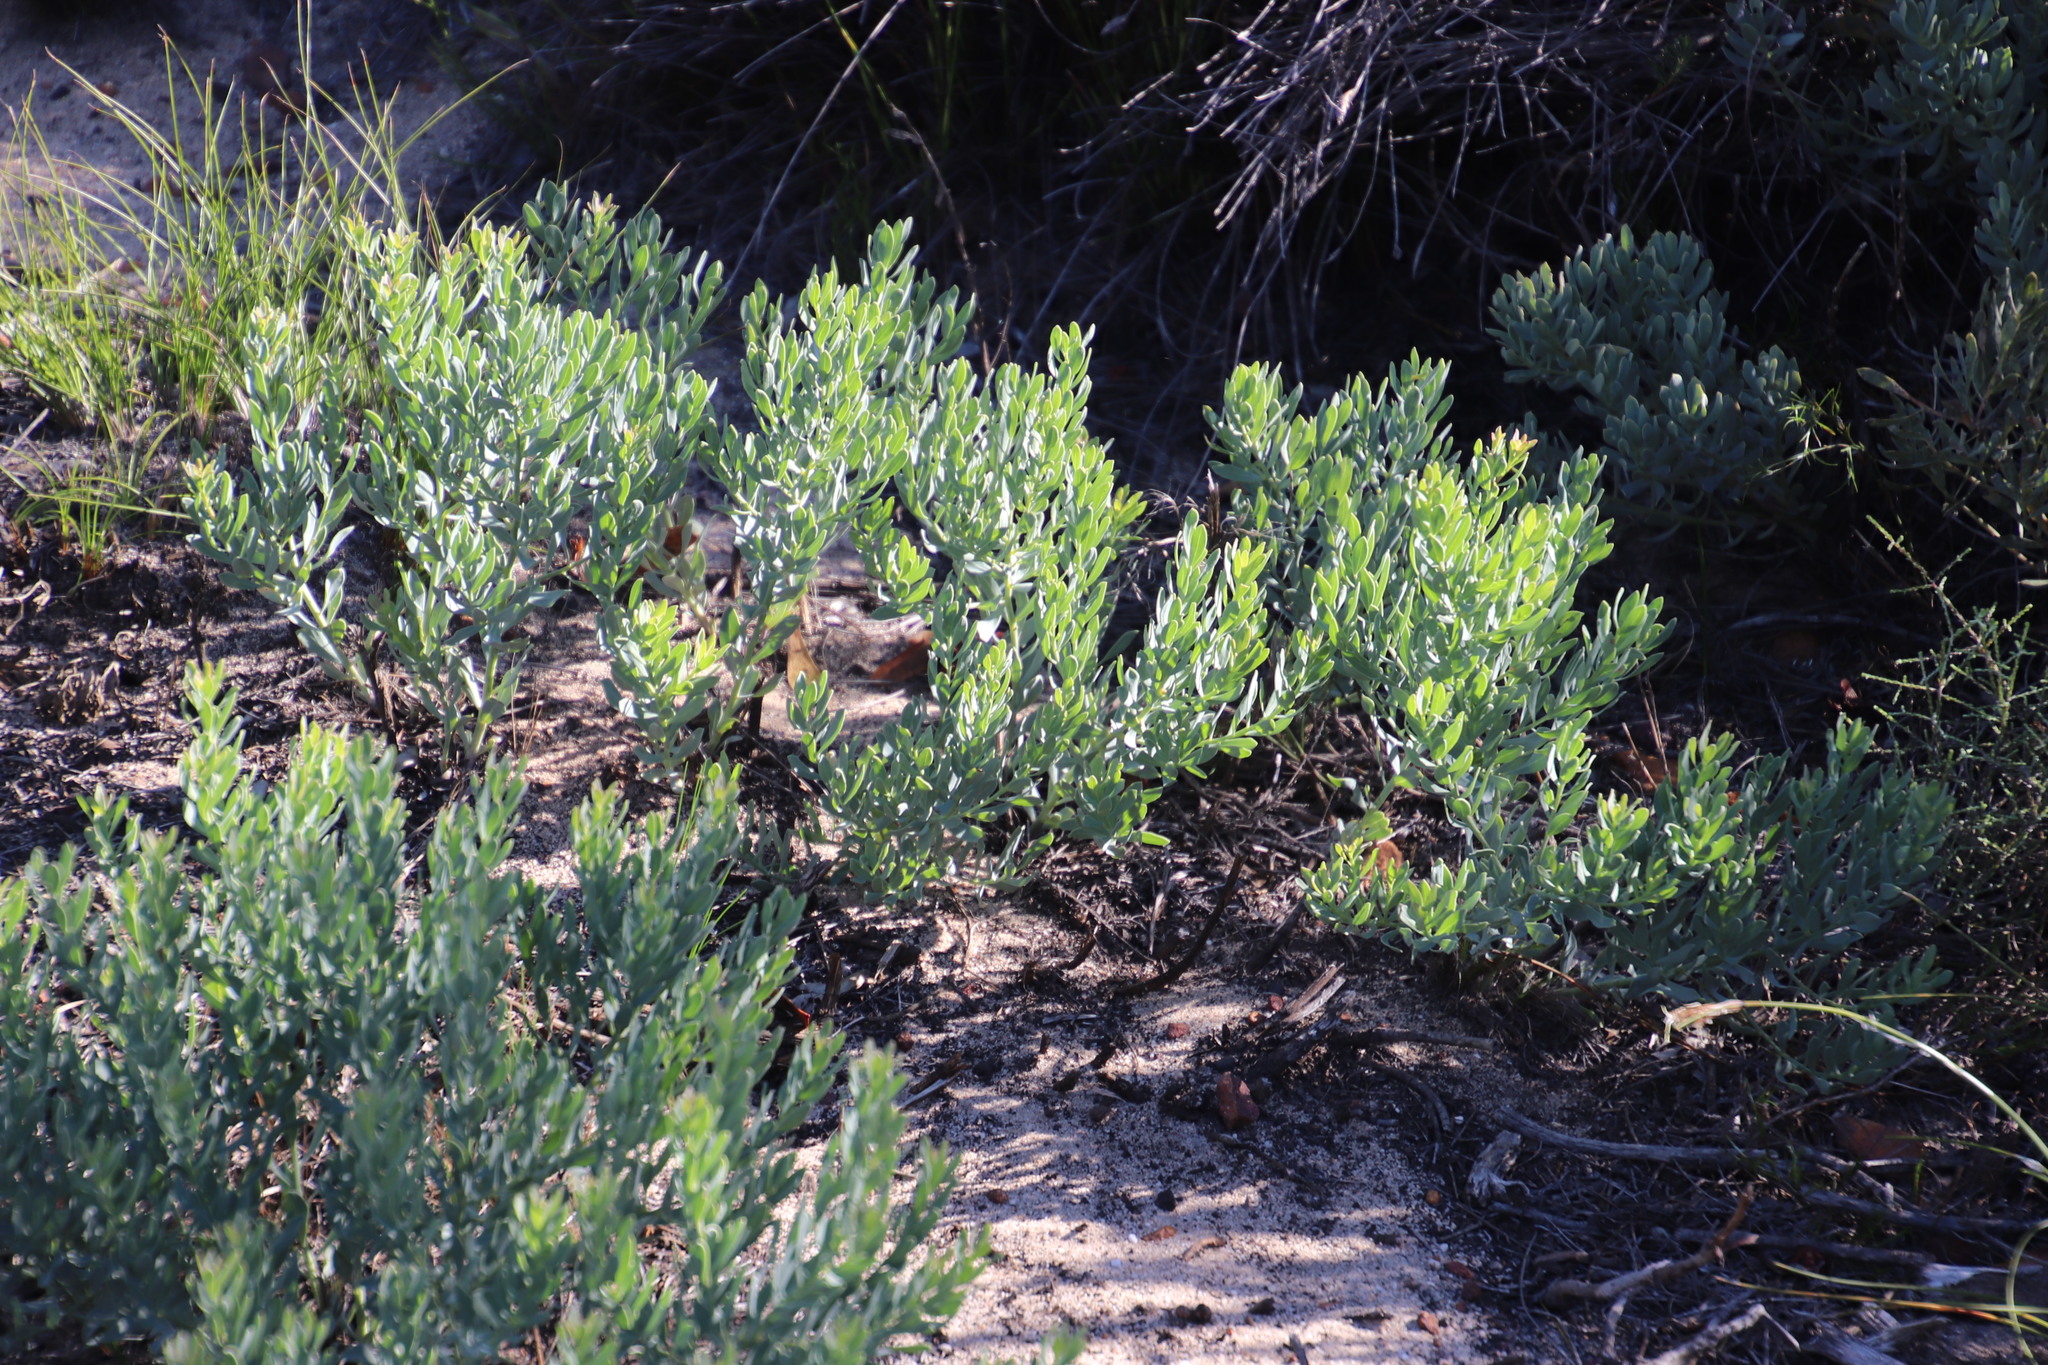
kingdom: Plantae
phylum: Tracheophyta
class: Magnoliopsida
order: Solanales
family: Montiniaceae
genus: Montinia
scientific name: Montinia caryophyllacea
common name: Wild clove-bush
